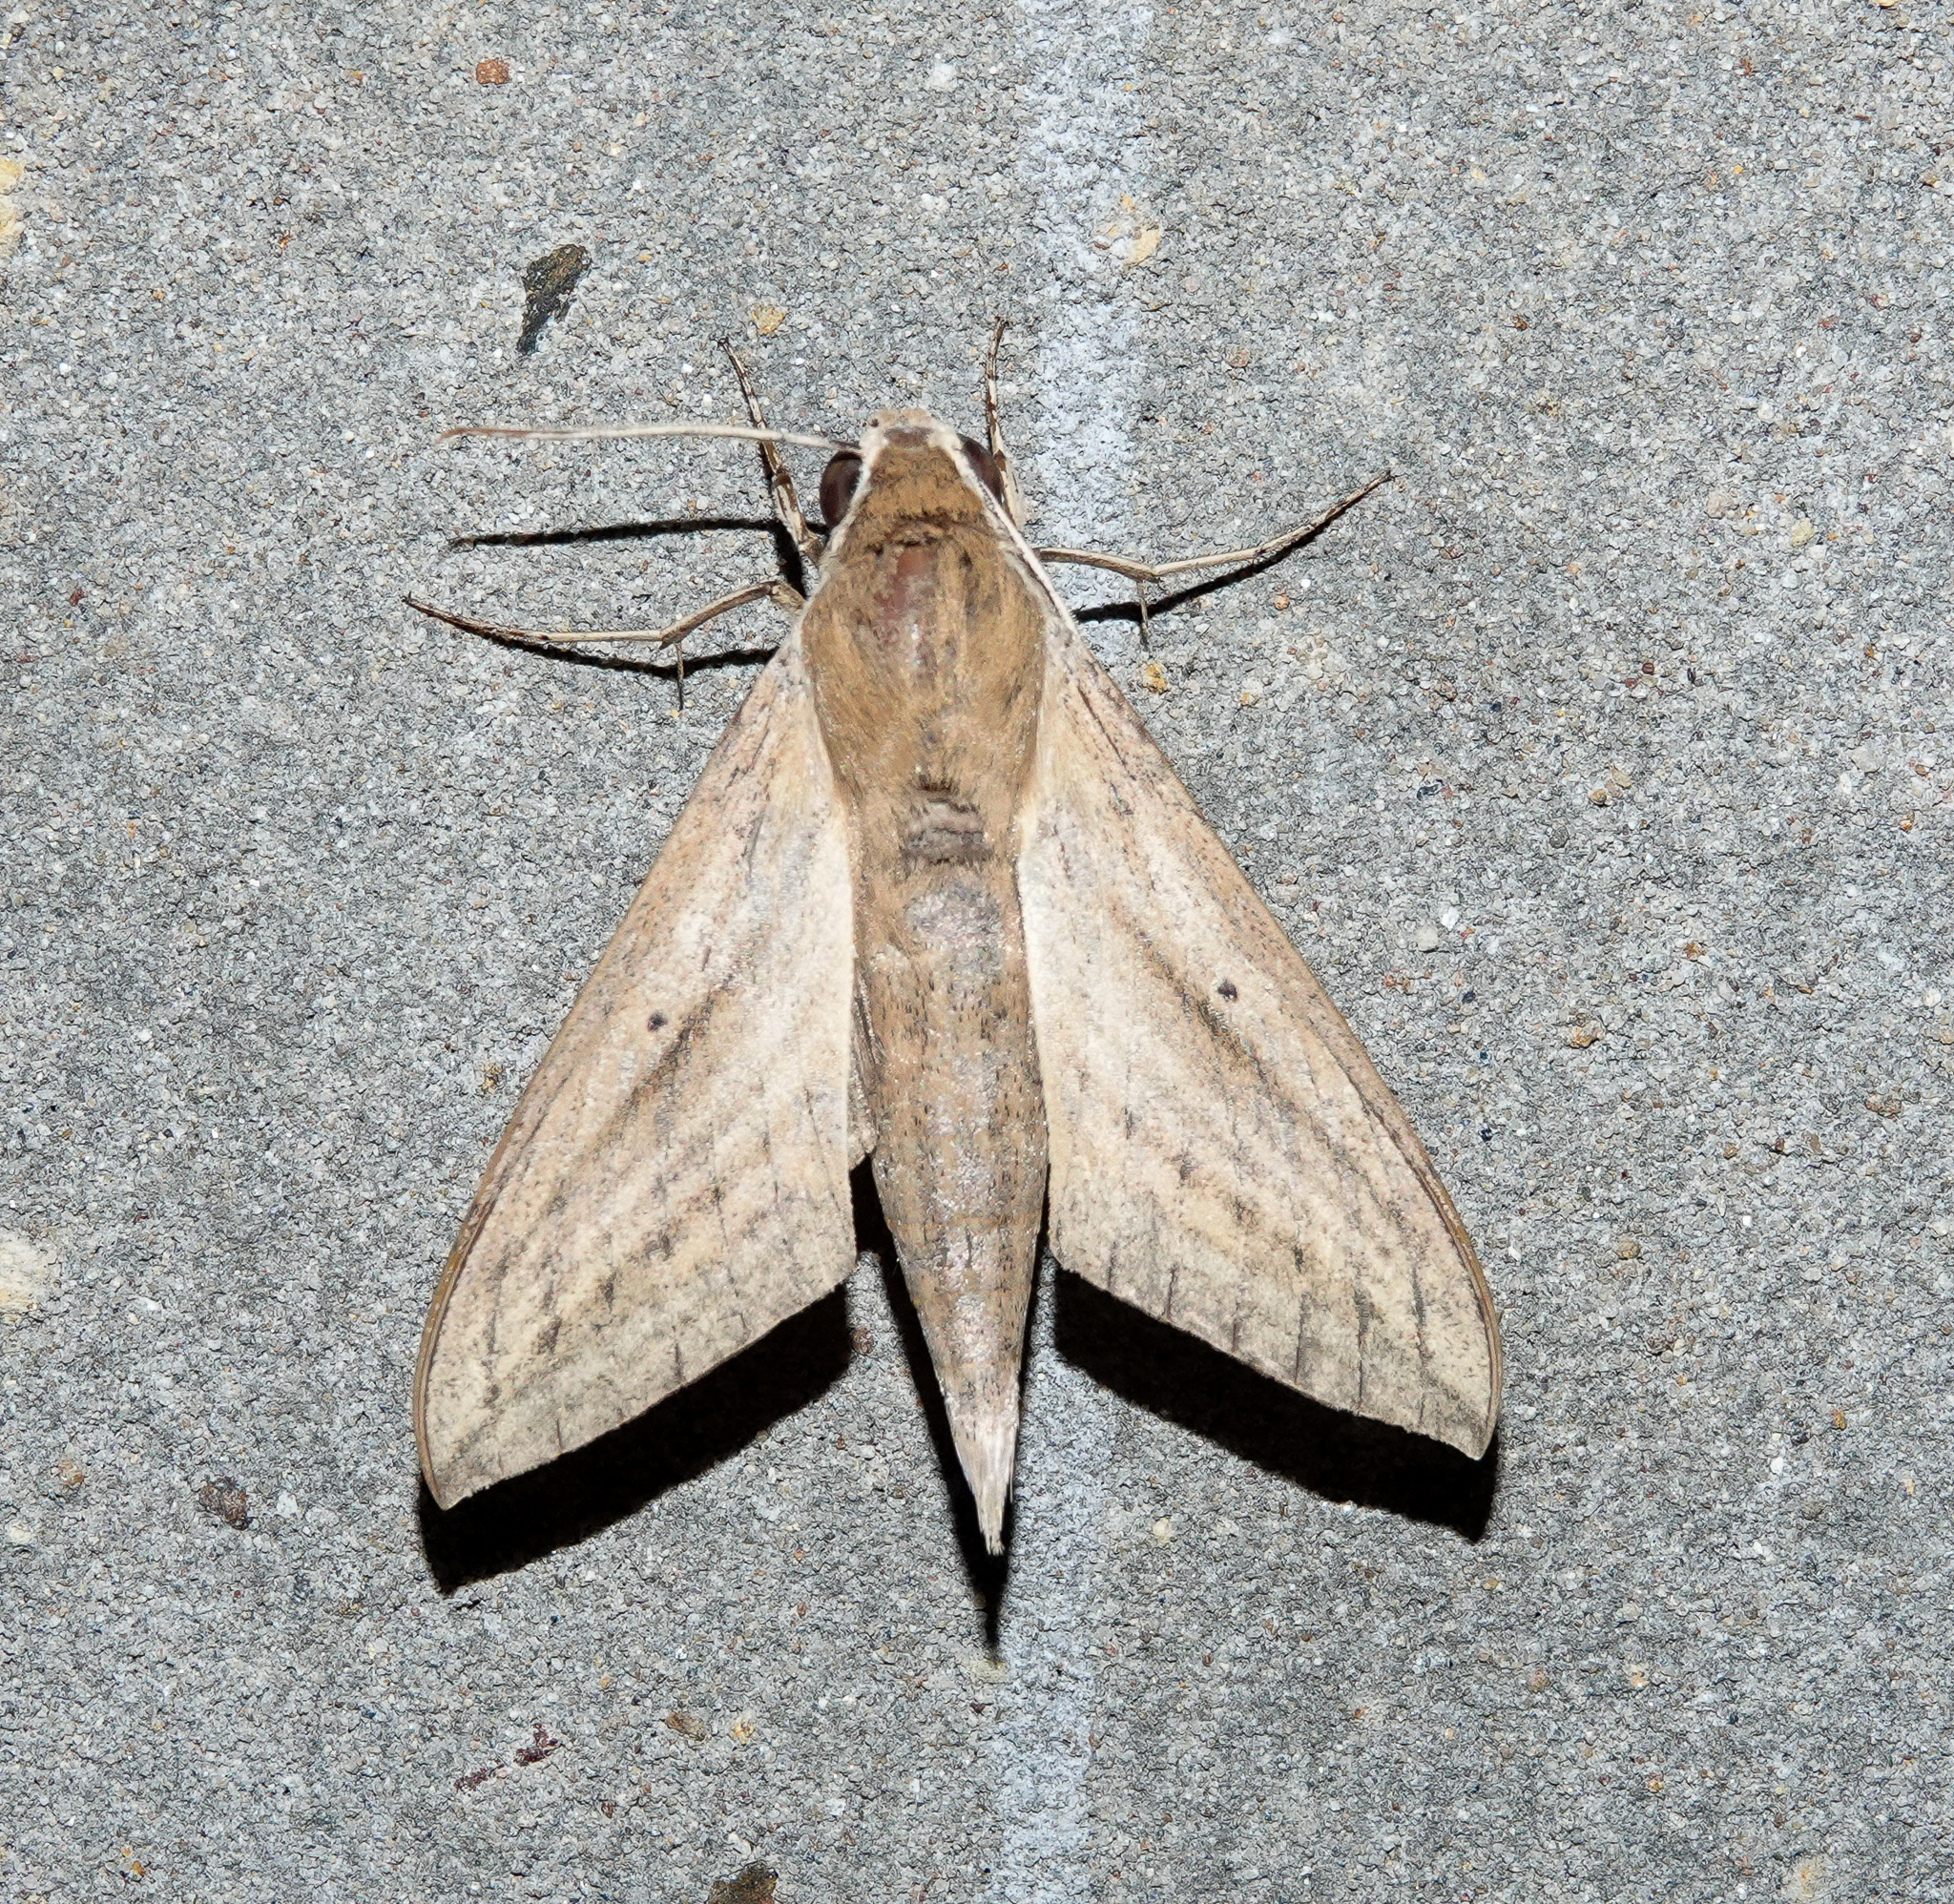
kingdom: Animalia
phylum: Arthropoda
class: Insecta
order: Lepidoptera
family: Sphingidae
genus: Theretra
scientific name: Theretra rhesus
